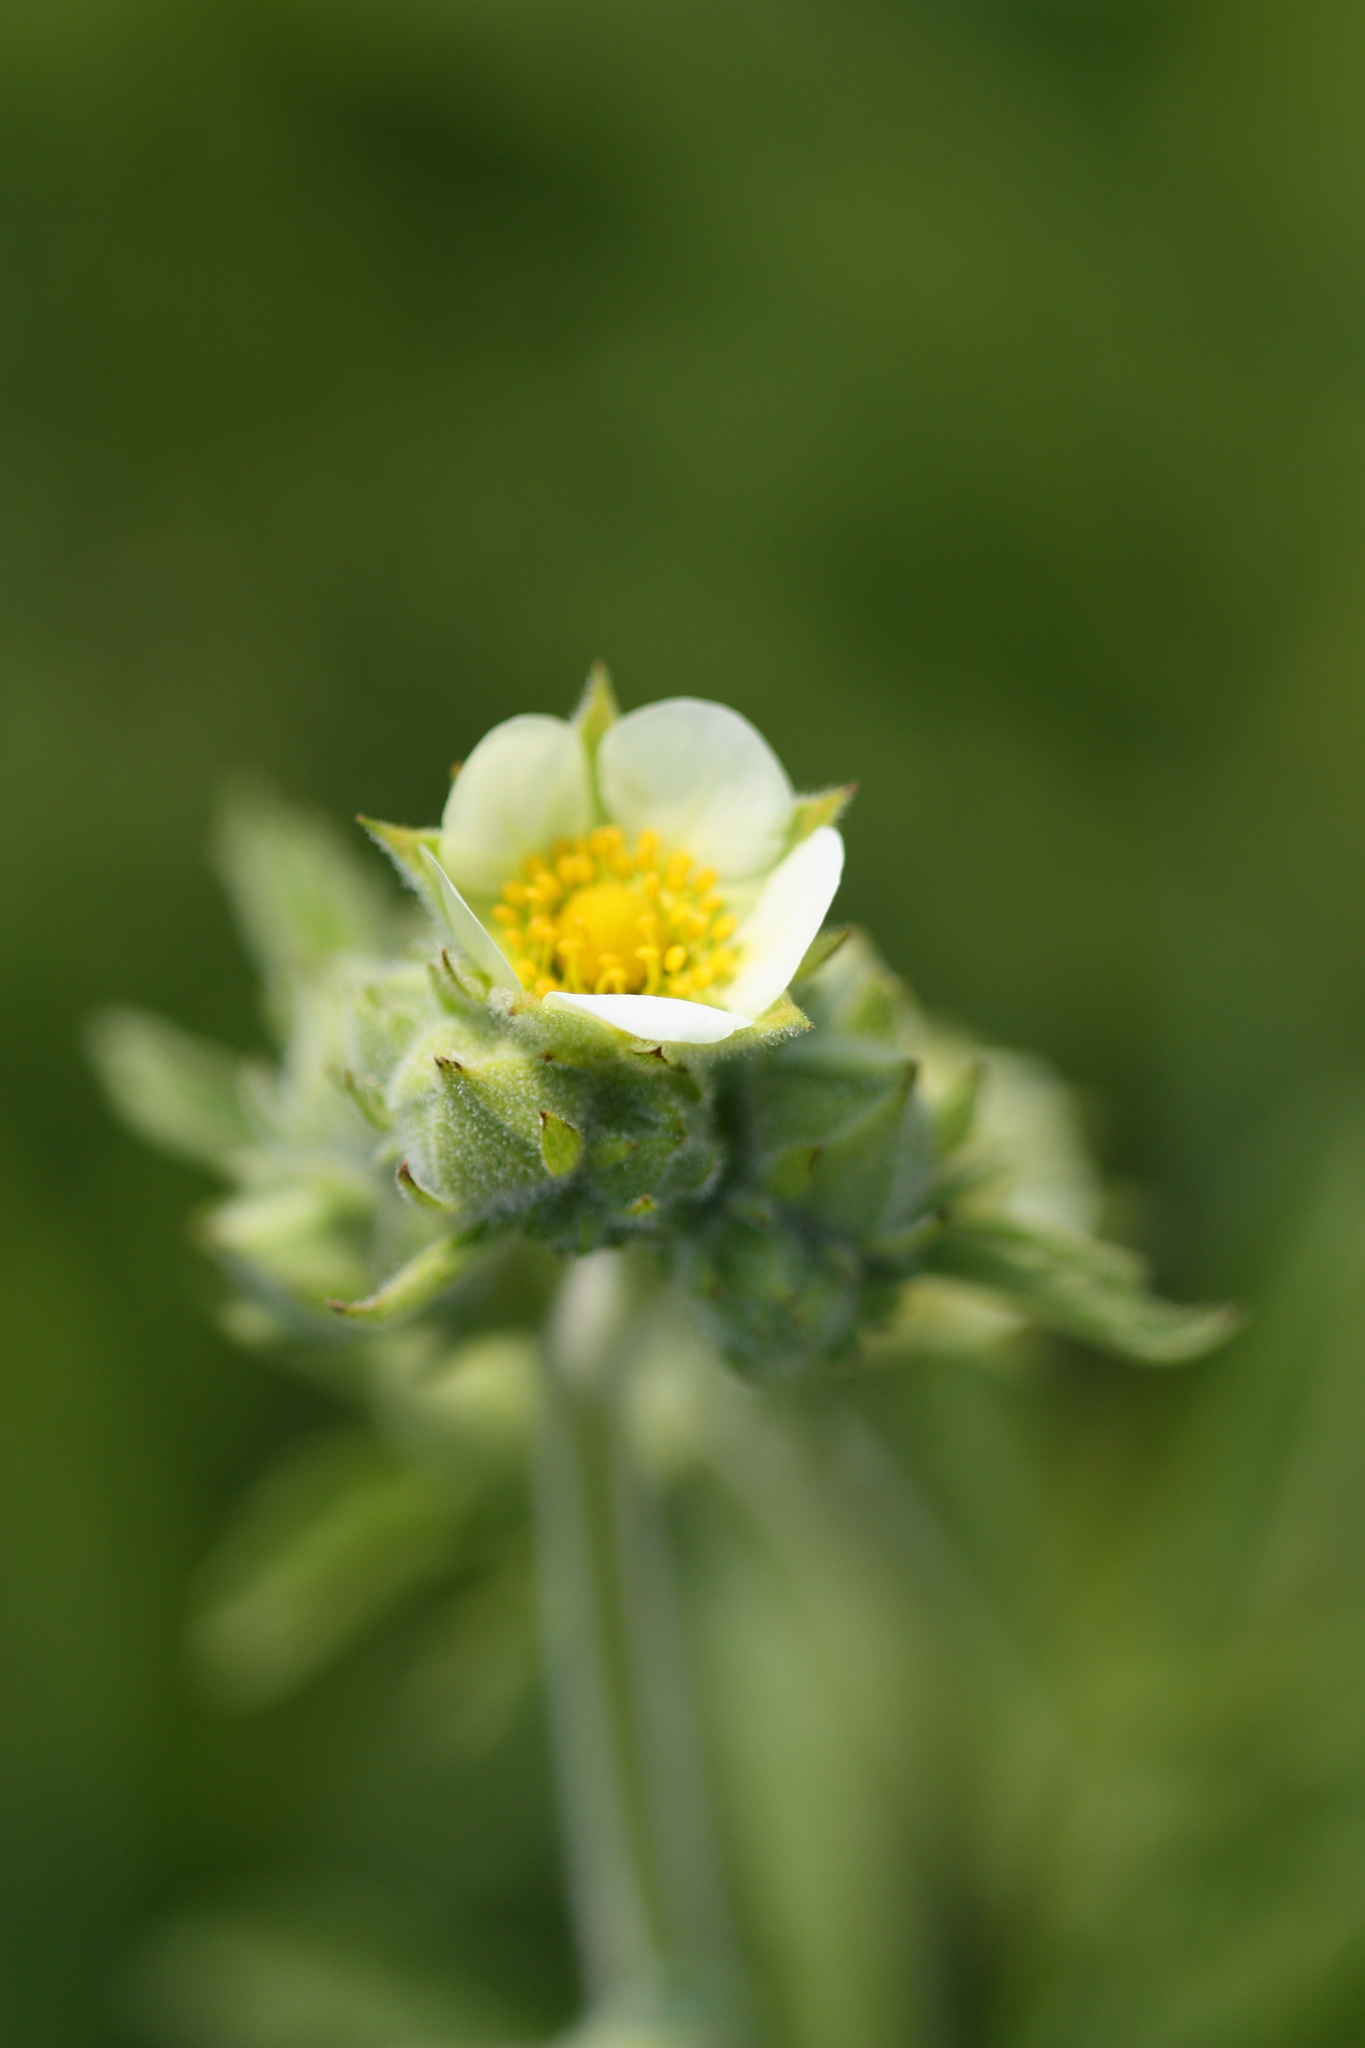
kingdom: Plantae
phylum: Tracheophyta
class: Magnoliopsida
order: Rosales
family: Rosaceae
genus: Drymocallis
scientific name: Drymocallis arguta
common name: Tall cinquefoil
